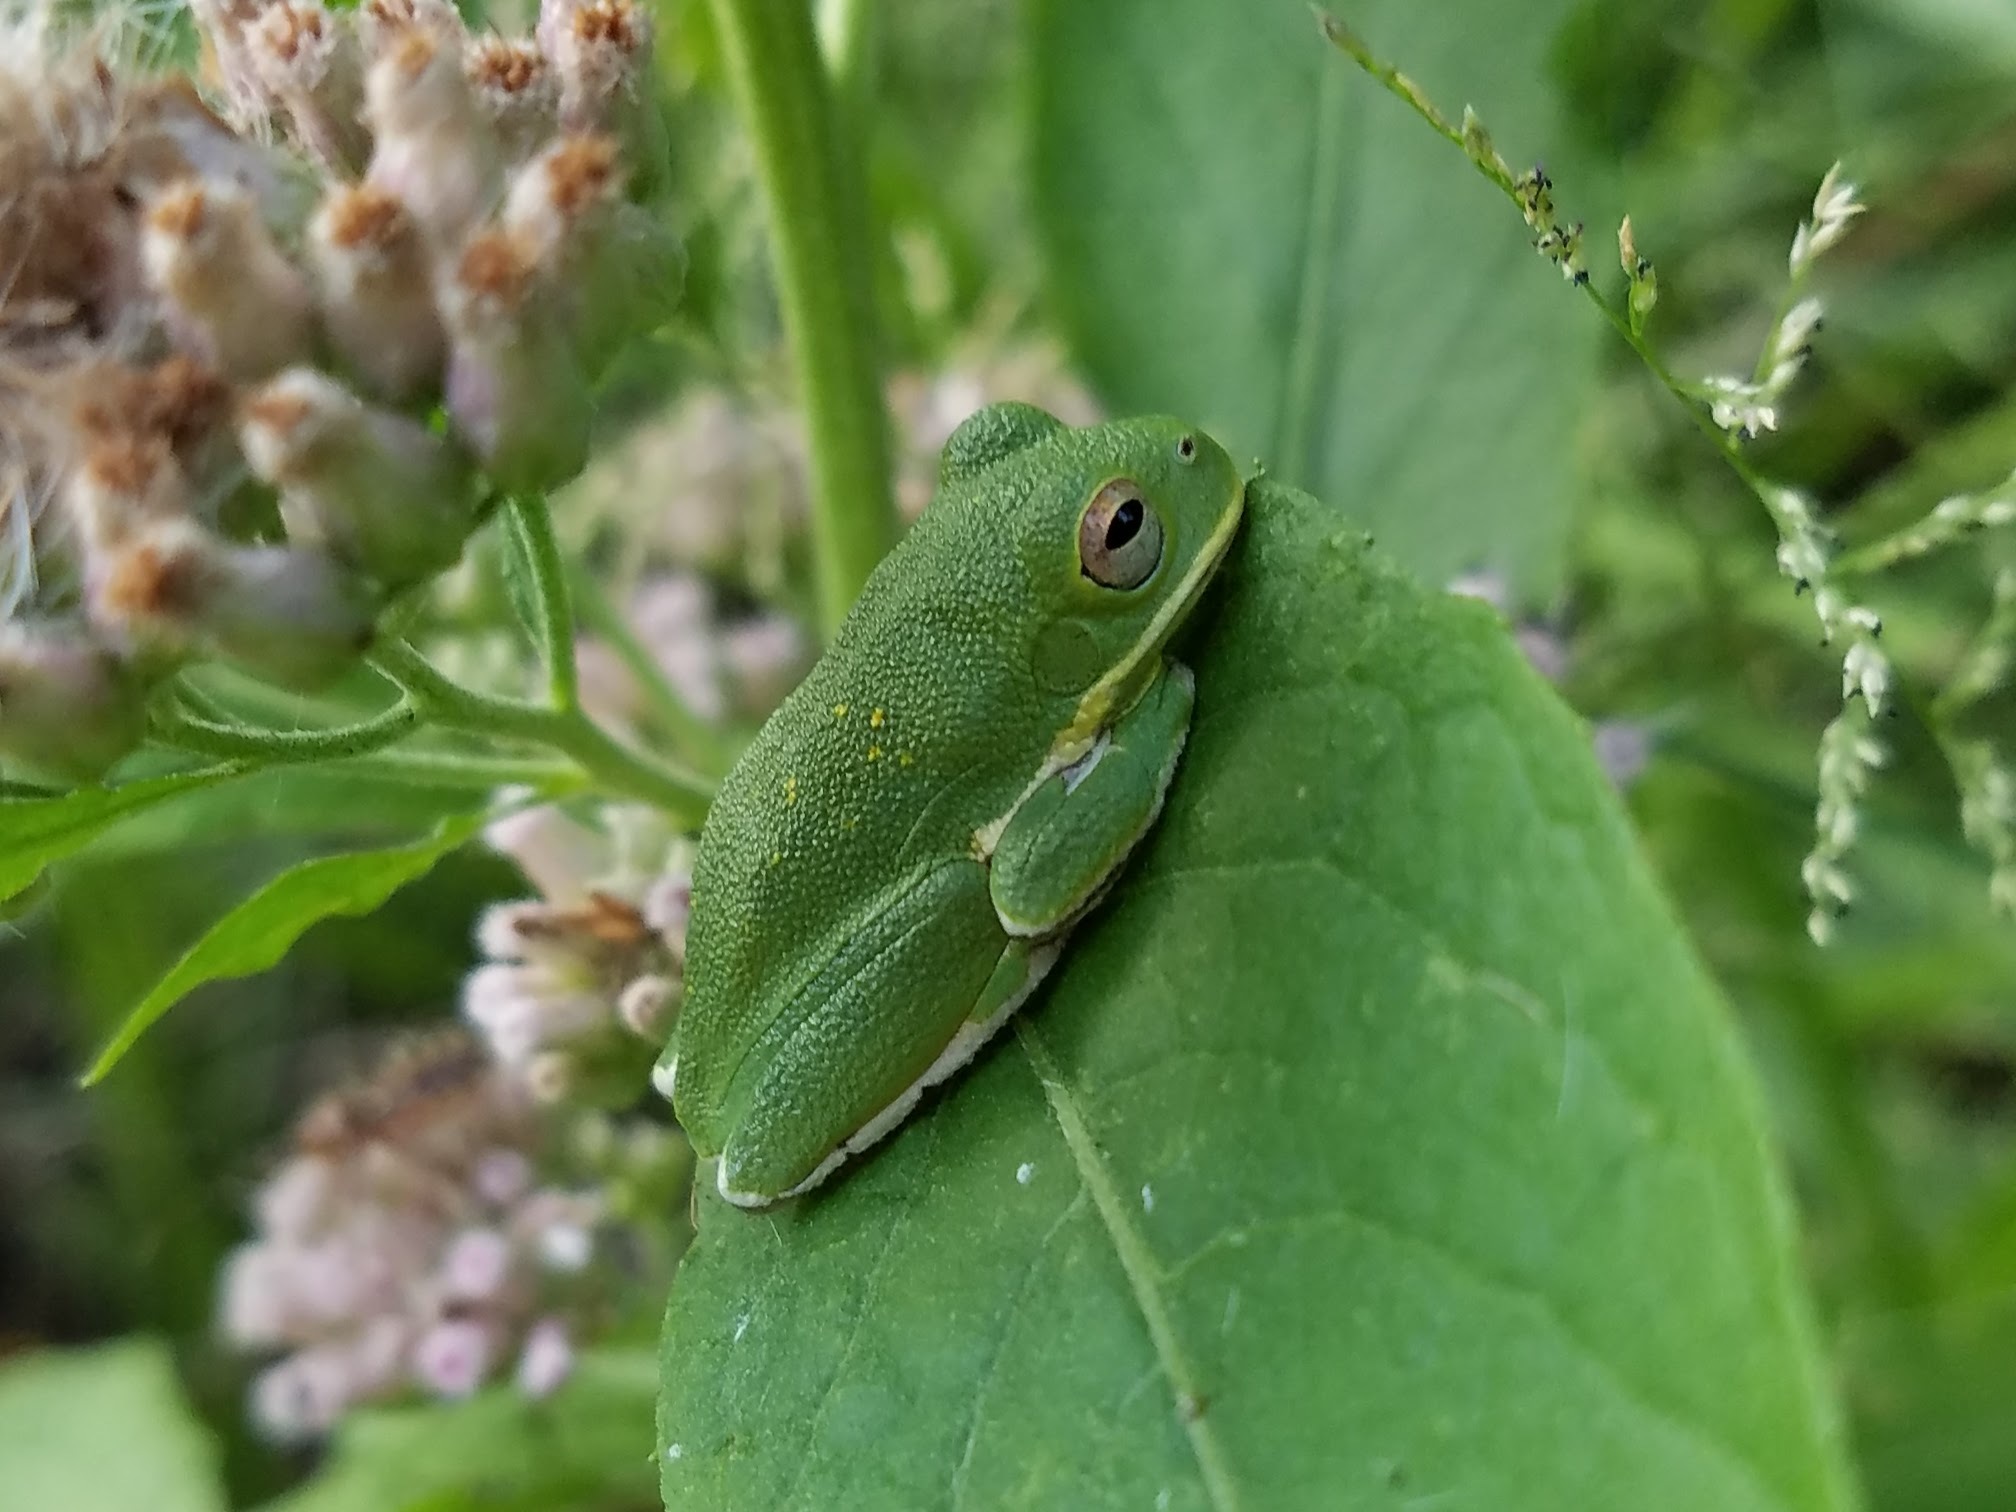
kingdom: Animalia
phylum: Chordata
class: Amphibia
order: Anura
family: Hylidae
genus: Dryophytes
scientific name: Dryophytes gratiosus
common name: Barking treefrog
